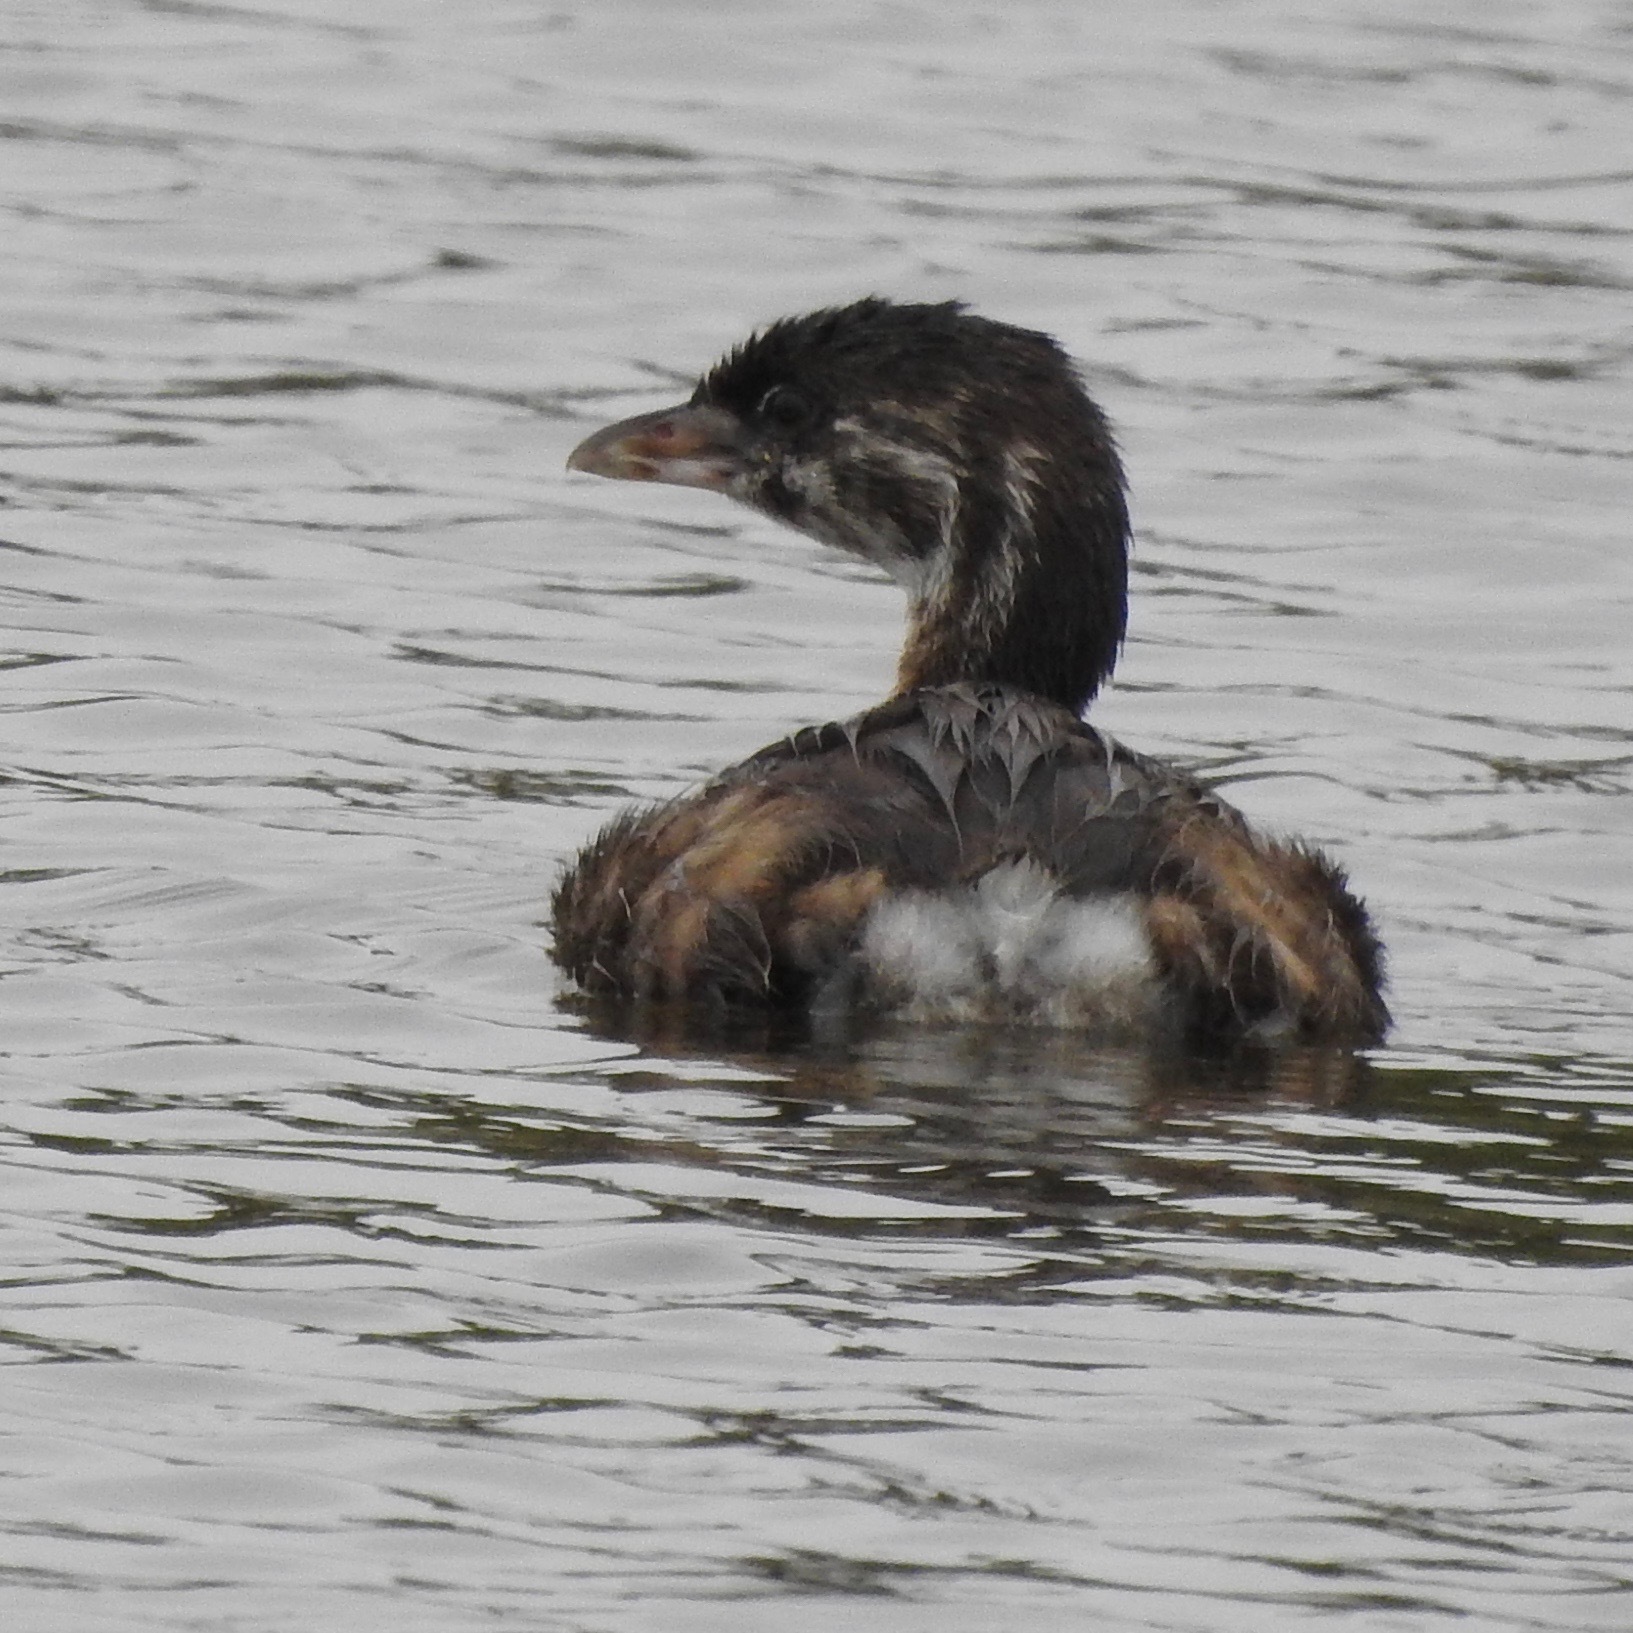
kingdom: Animalia
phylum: Chordata
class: Aves
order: Podicipediformes
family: Podicipedidae
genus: Podilymbus
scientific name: Podilymbus podiceps
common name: Pied-billed grebe
